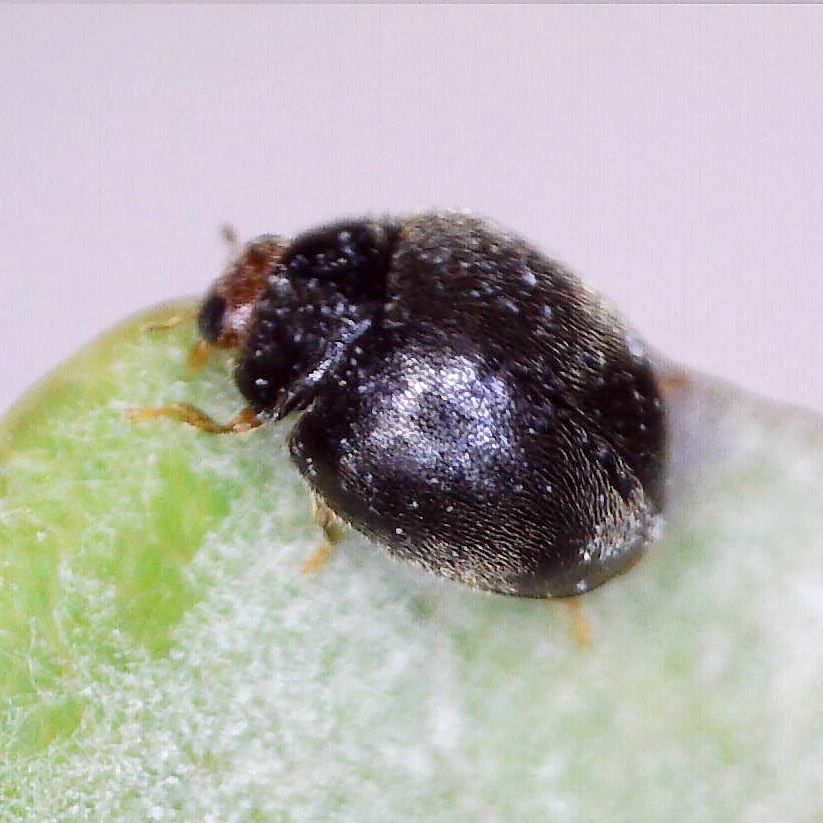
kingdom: Animalia
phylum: Arthropoda
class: Insecta
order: Coleoptera
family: Coccinellidae
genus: Scymnus
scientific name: Scymnus auritus
